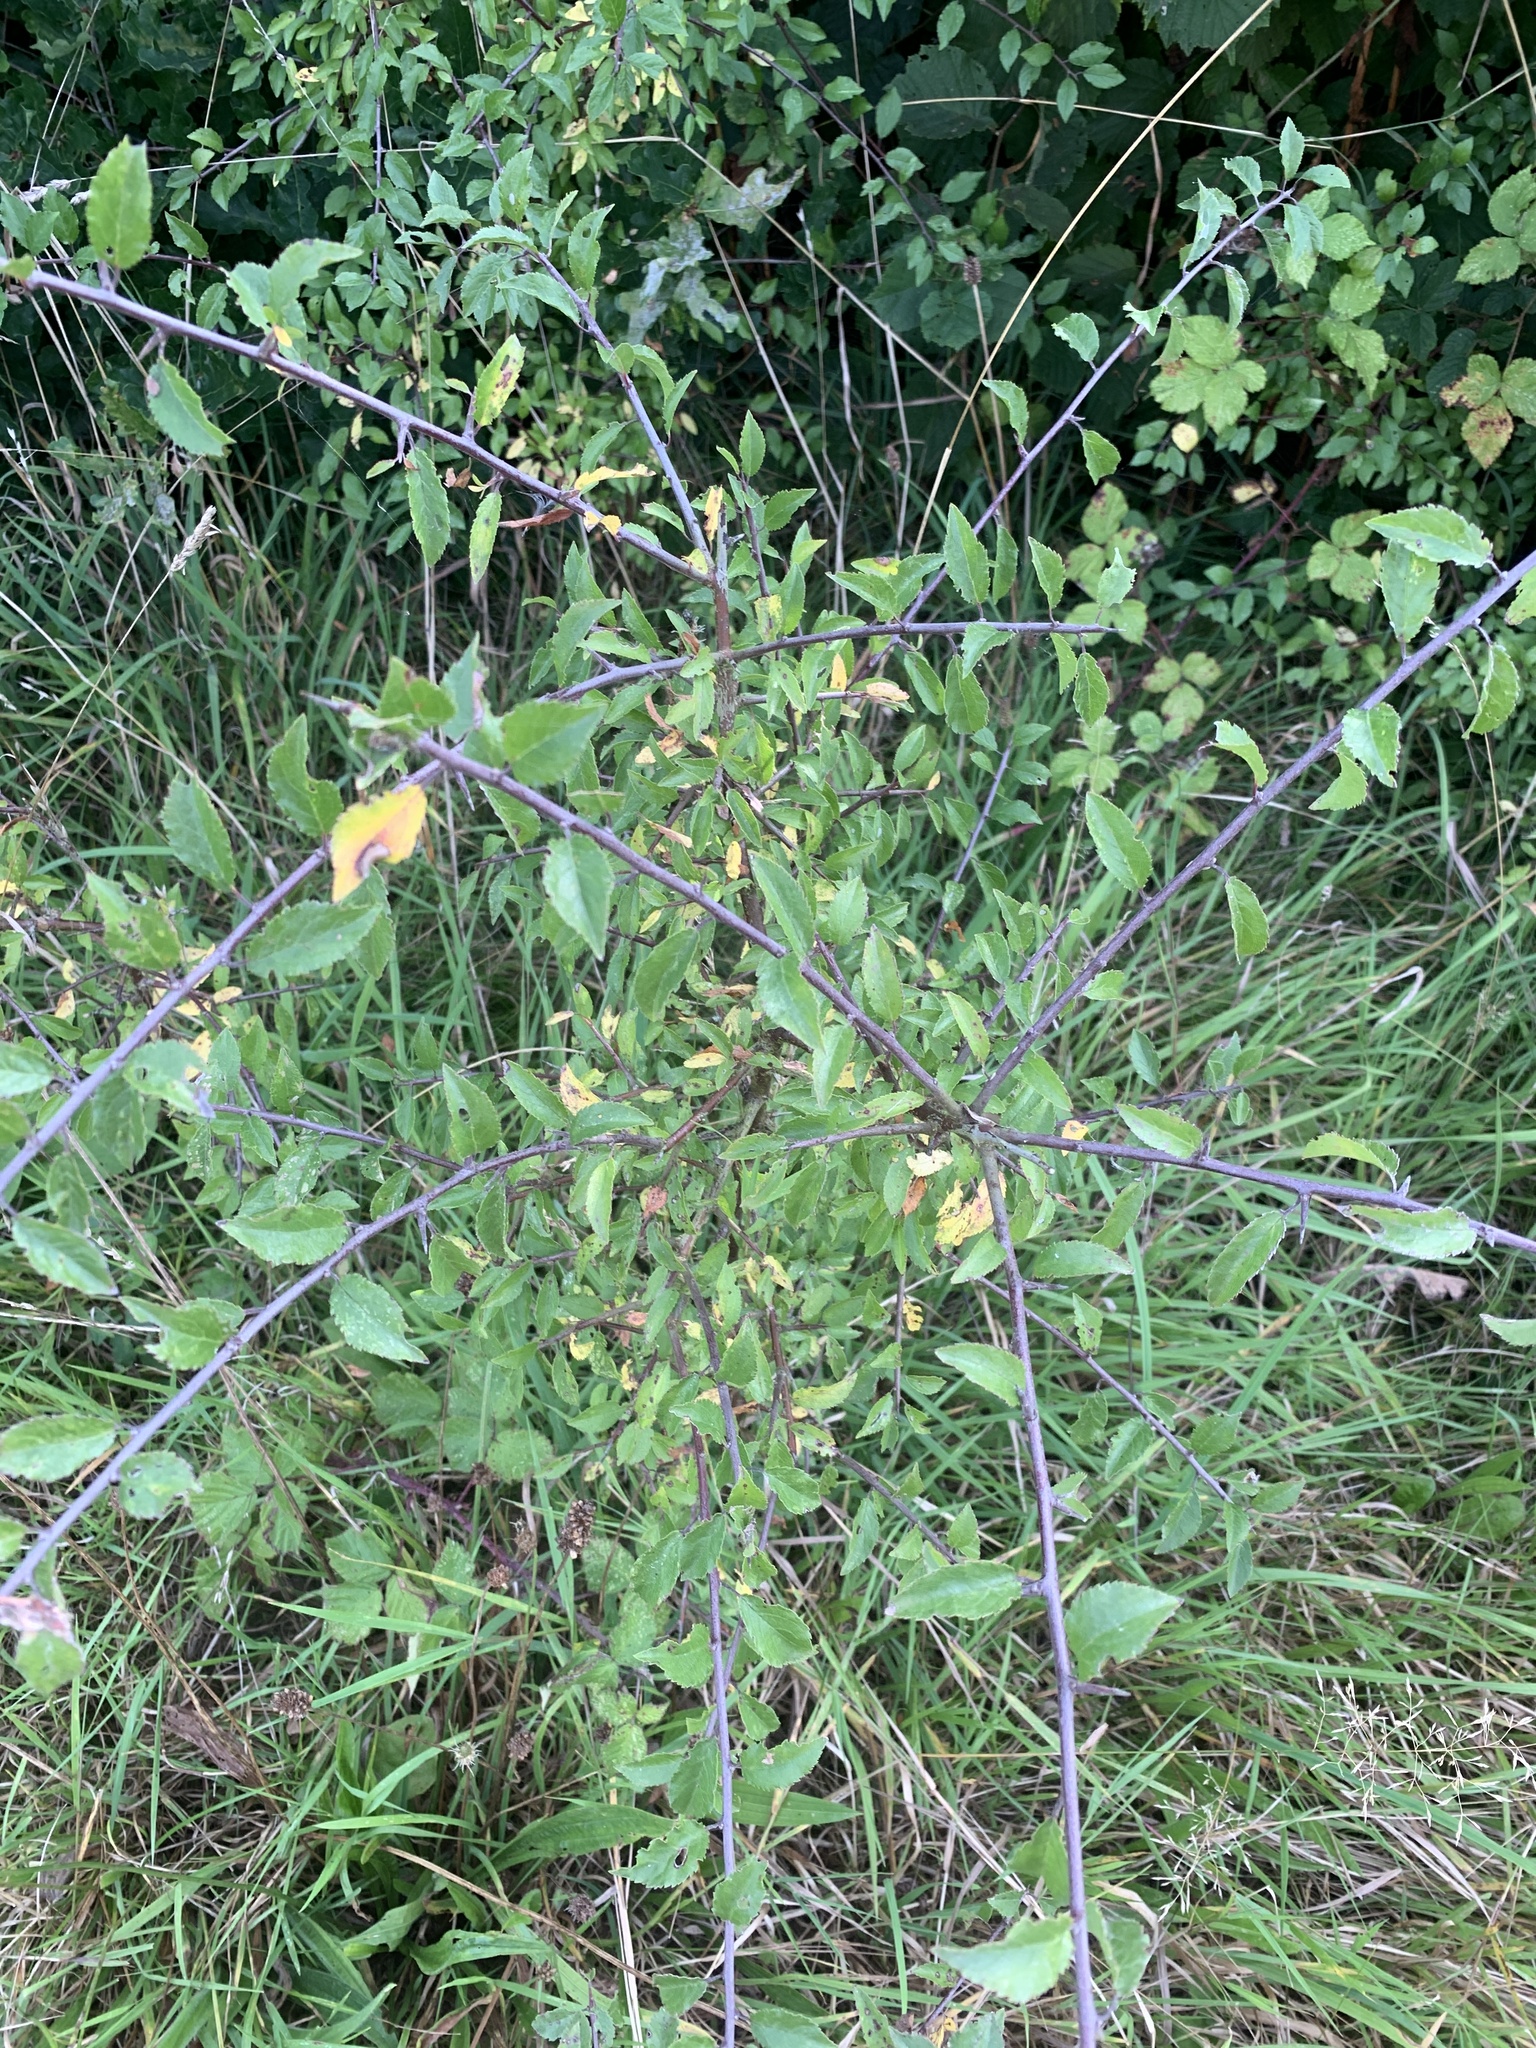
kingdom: Plantae
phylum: Tracheophyta
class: Magnoliopsida
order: Rosales
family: Rosaceae
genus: Prunus
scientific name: Prunus spinosa
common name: Blackthorn
